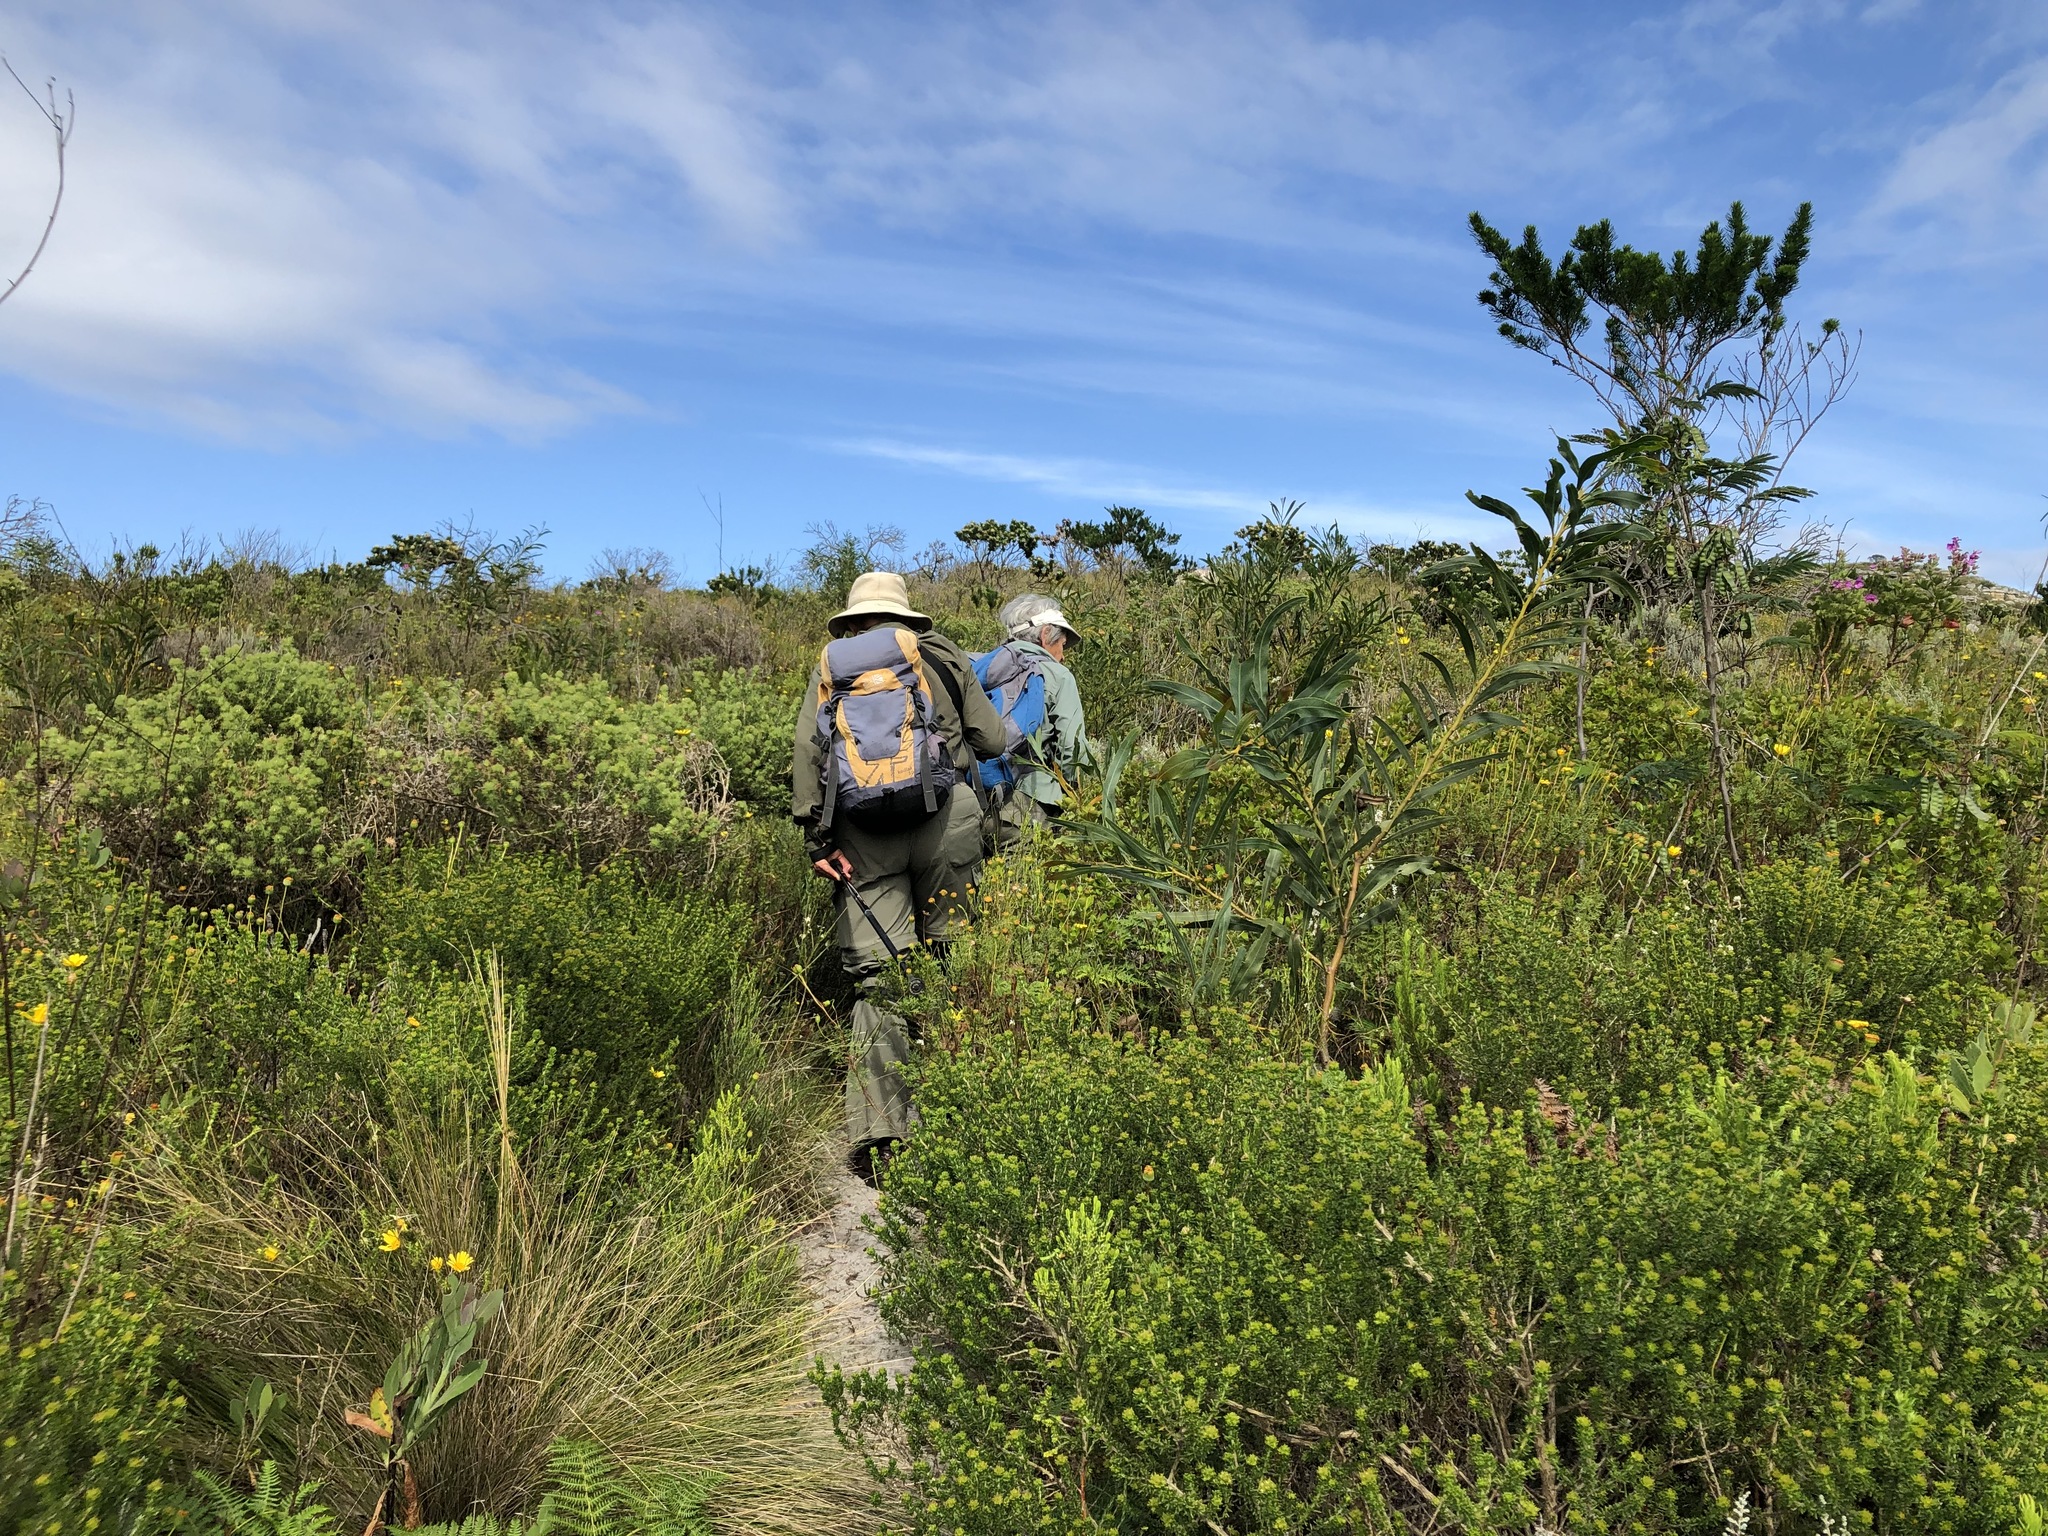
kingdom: Plantae
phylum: Tracheophyta
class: Magnoliopsida
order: Fabales
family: Fabaceae
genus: Acacia
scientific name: Acacia saligna
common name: Orange wattle
